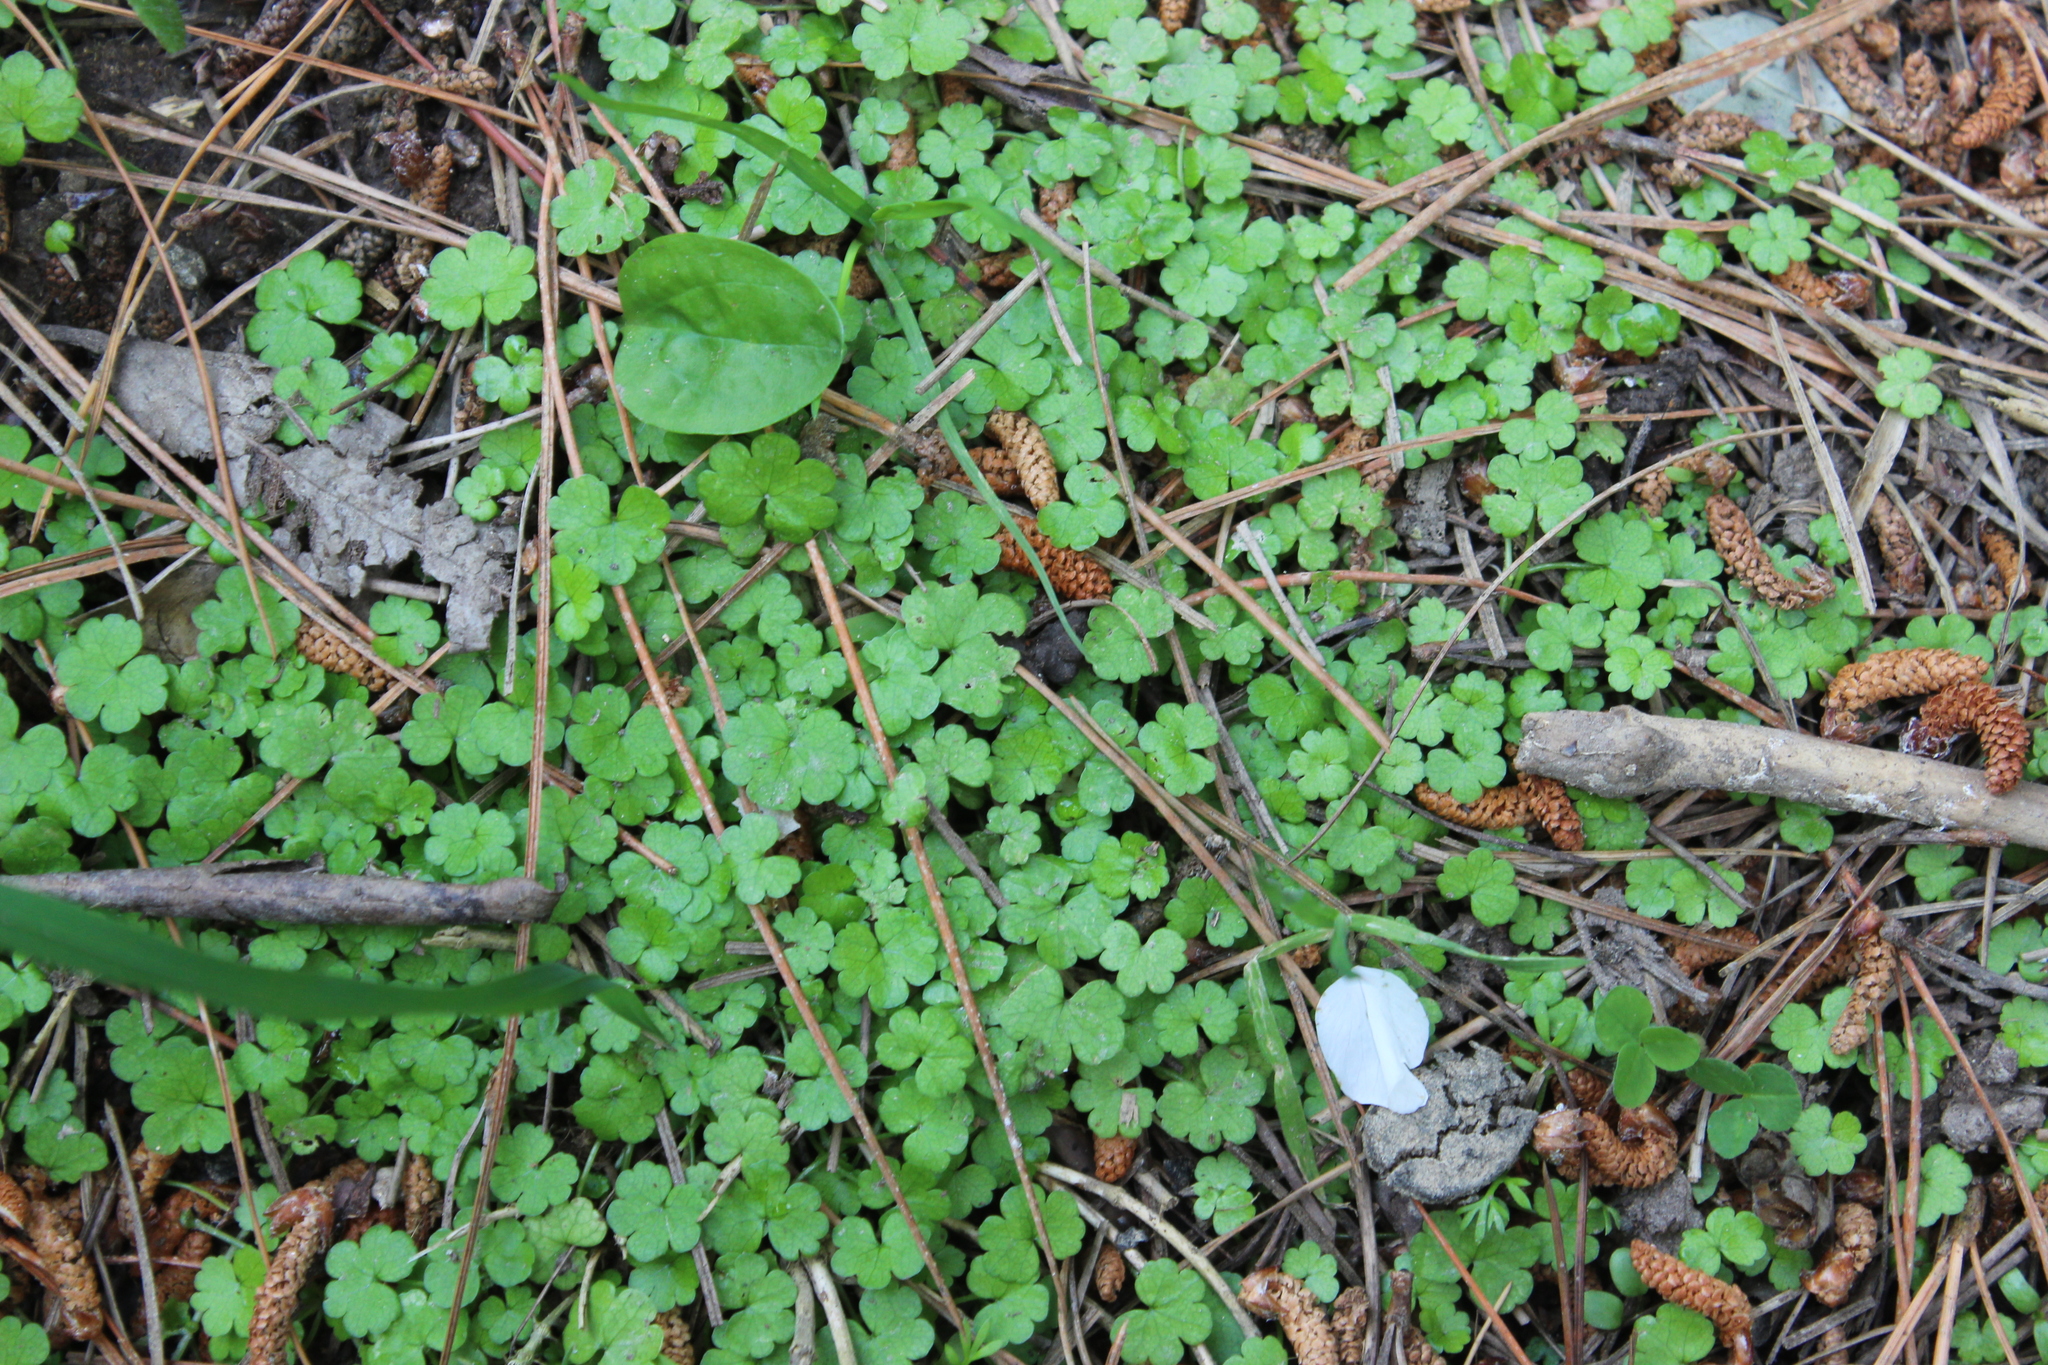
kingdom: Plantae
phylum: Tracheophyta
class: Magnoliopsida
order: Apiales
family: Araliaceae
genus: Hydrocotyle
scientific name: Hydrocotyle heteromeria
